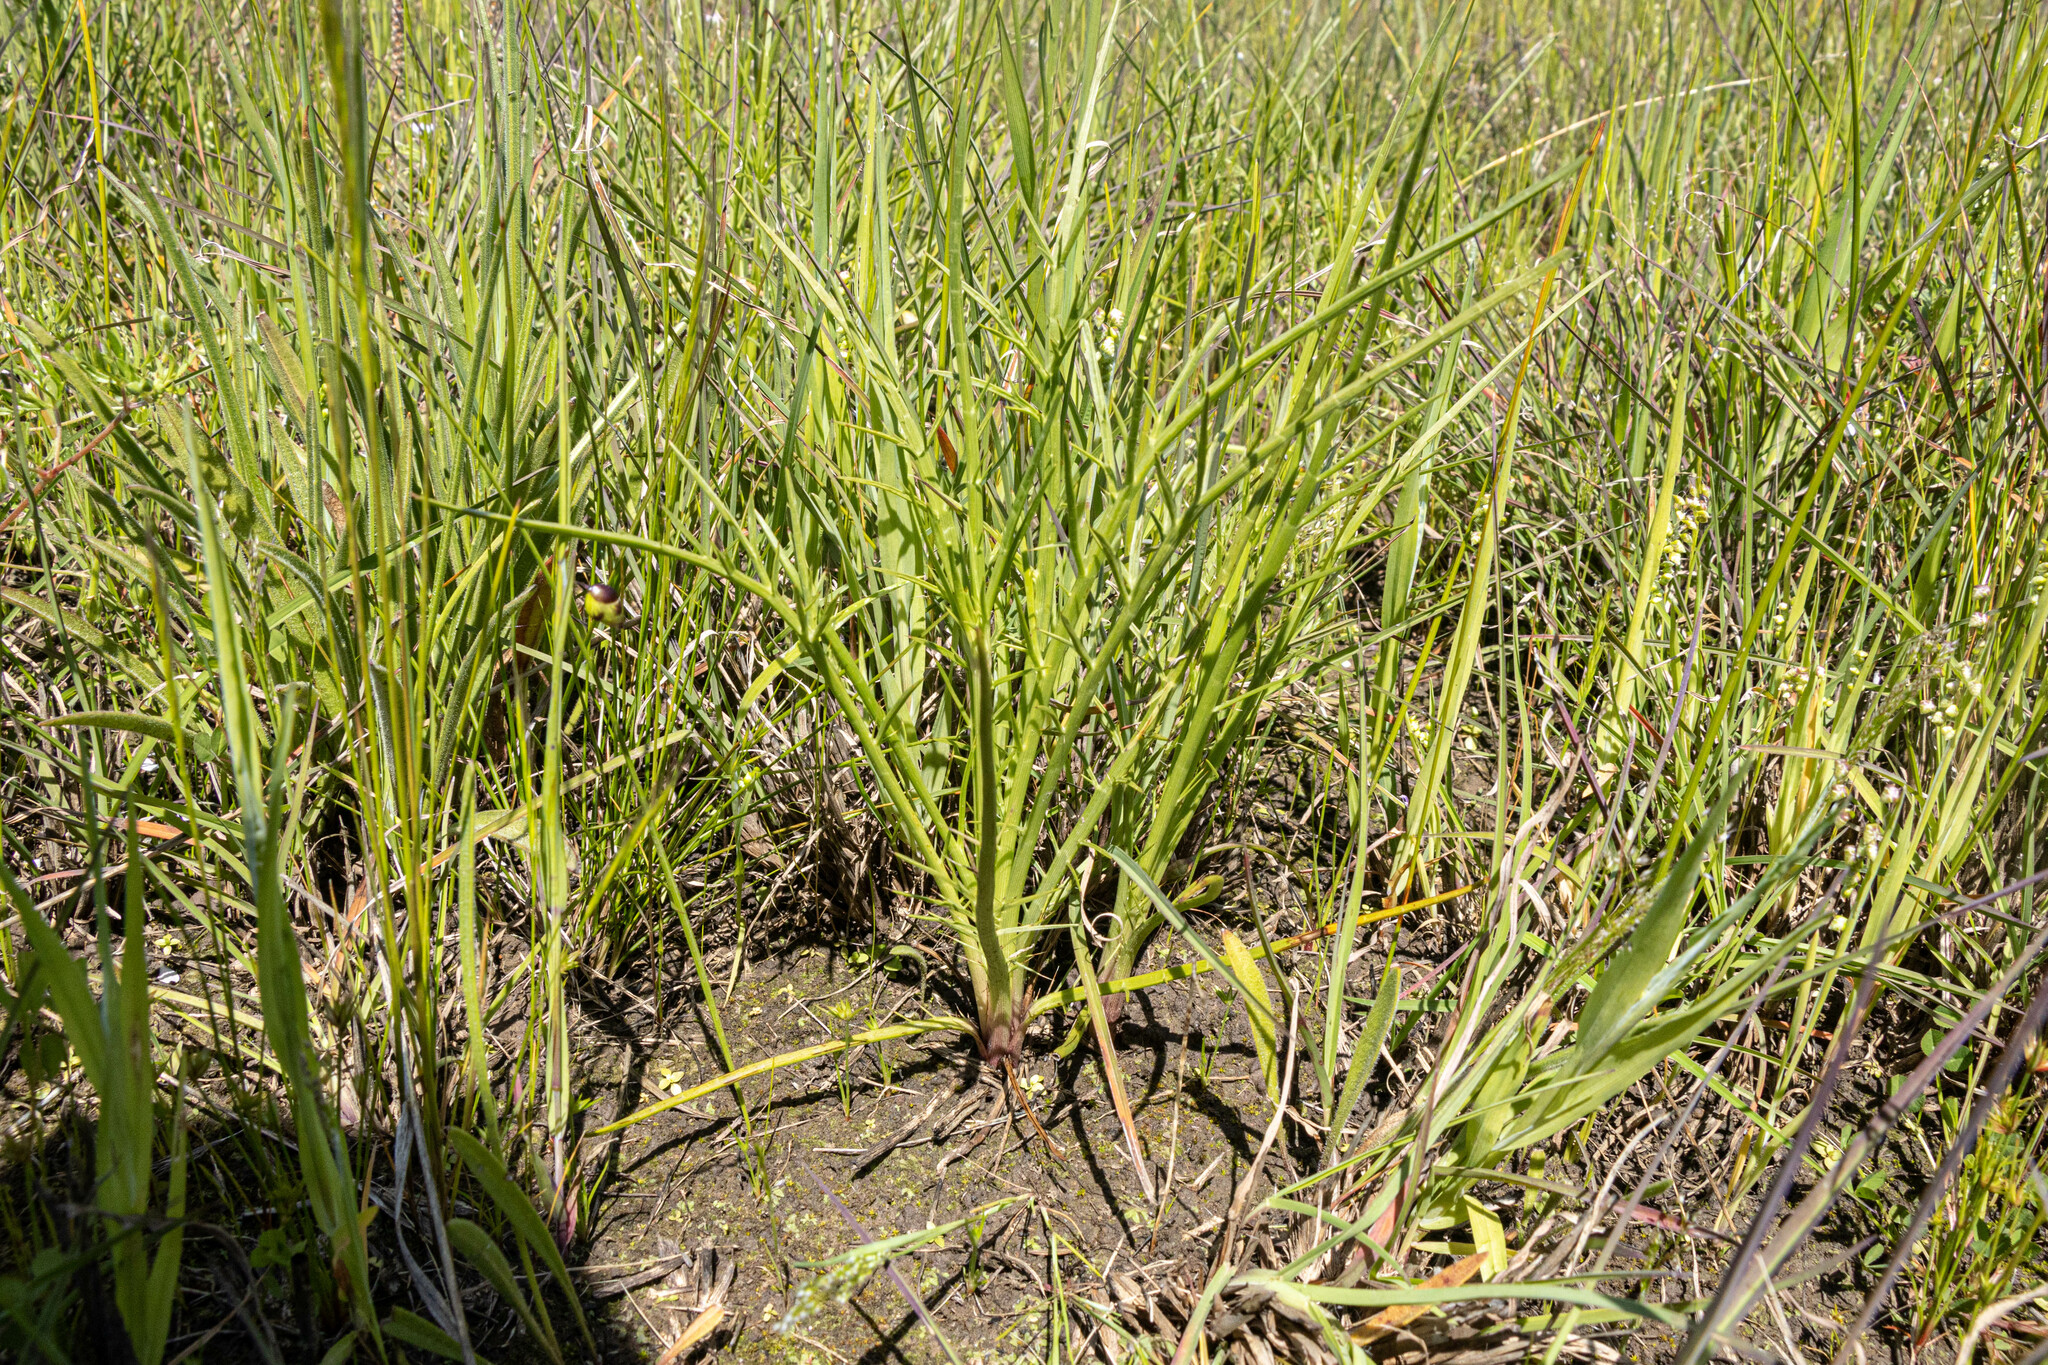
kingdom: Plantae
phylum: Tracheophyta
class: Magnoliopsida
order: Apiales
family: Apiaceae
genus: Eryngium
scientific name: Eryngium ovinum
